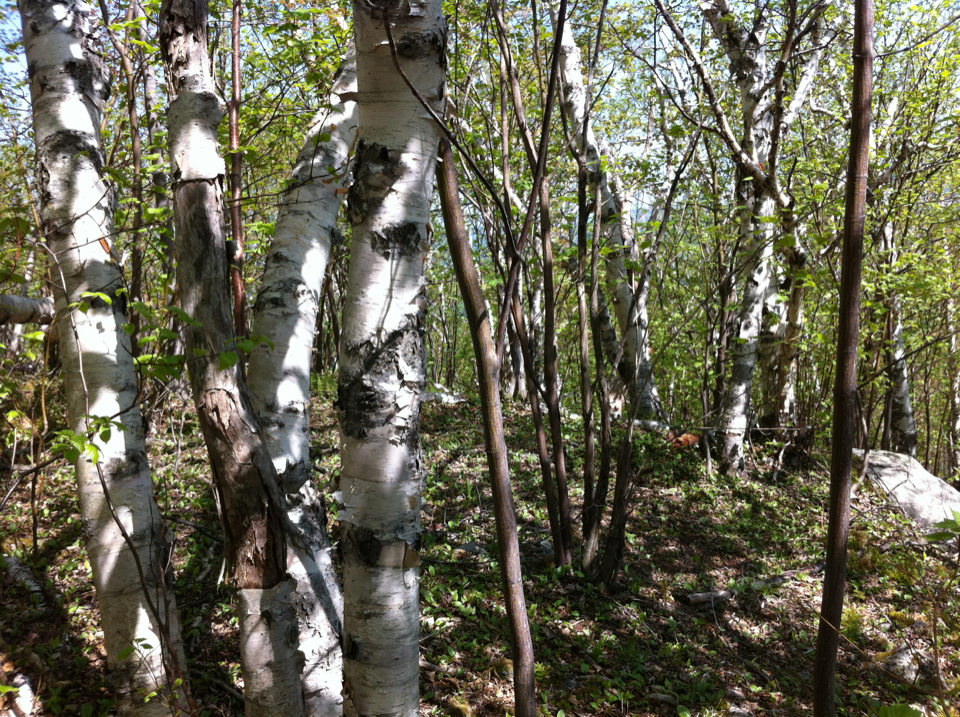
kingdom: Plantae
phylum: Tracheophyta
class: Magnoliopsida
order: Fagales
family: Betulaceae
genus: Betula
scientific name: Betula papyrifera
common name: Paper birch
